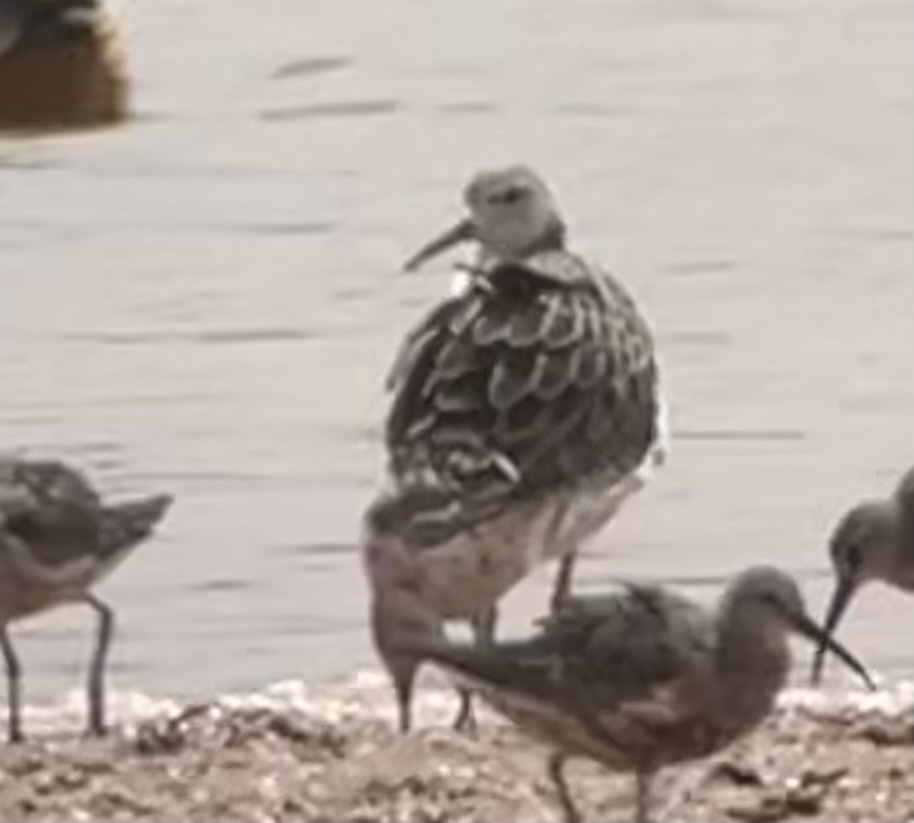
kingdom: Animalia
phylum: Chordata
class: Aves
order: Charadriiformes
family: Scolopacidae
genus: Calidris
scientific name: Calidris pugnax
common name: Ruff
